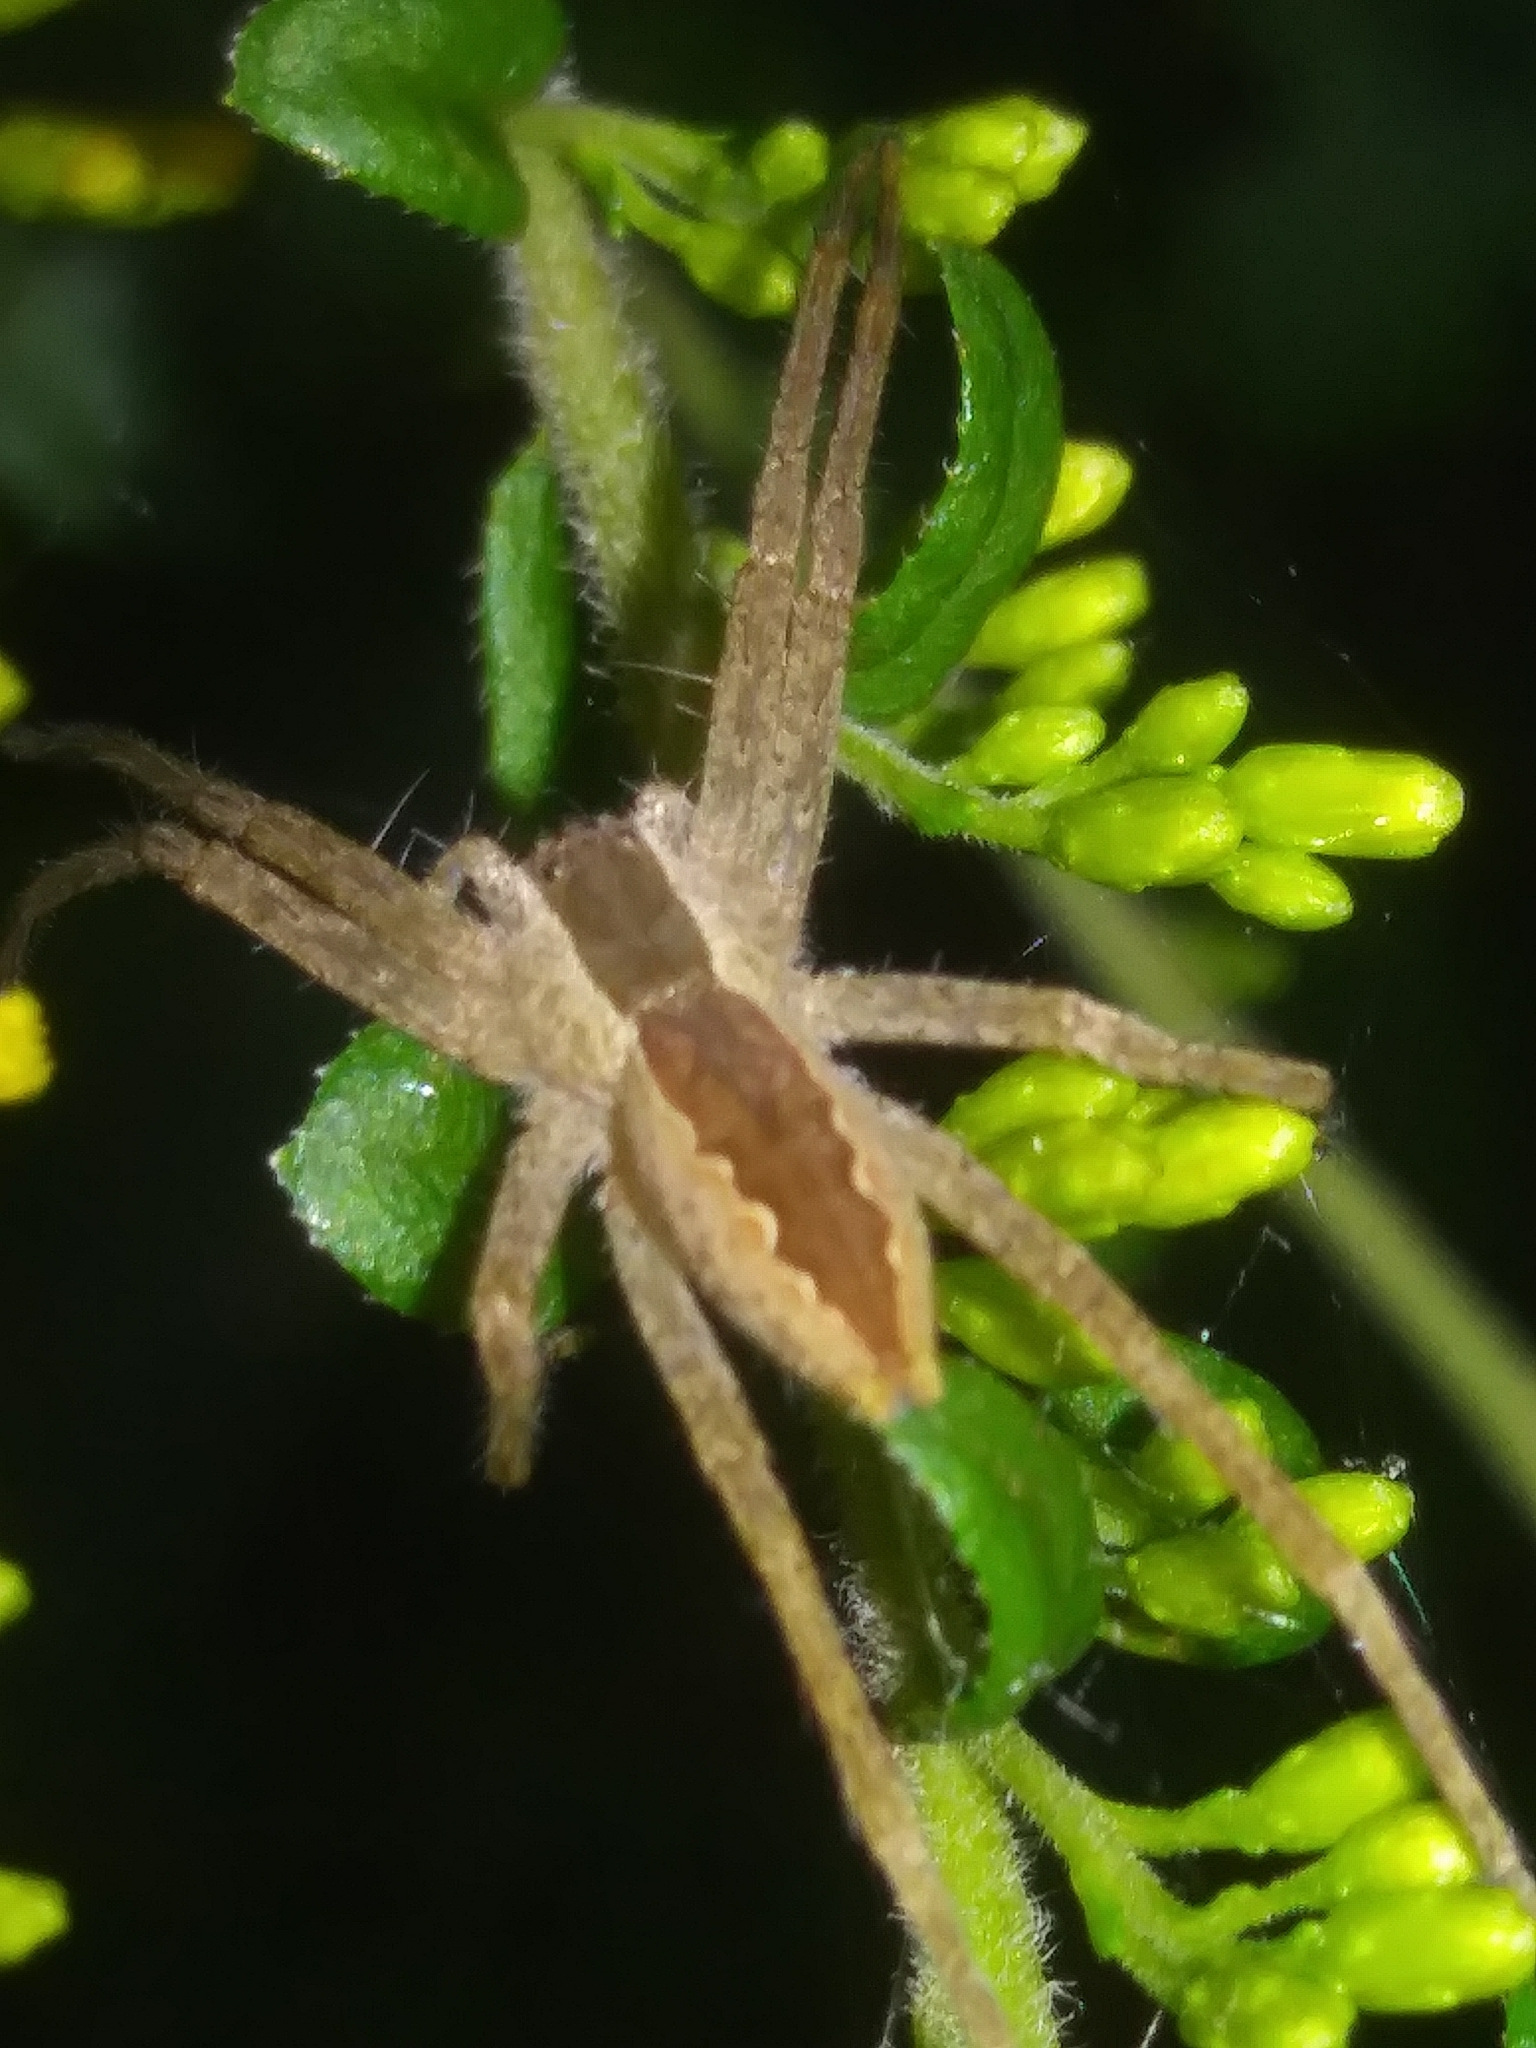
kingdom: Animalia
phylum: Arthropoda
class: Arachnida
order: Araneae
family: Pisauridae
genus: Pisaurina
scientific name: Pisaurina mira
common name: American nursery web spider
